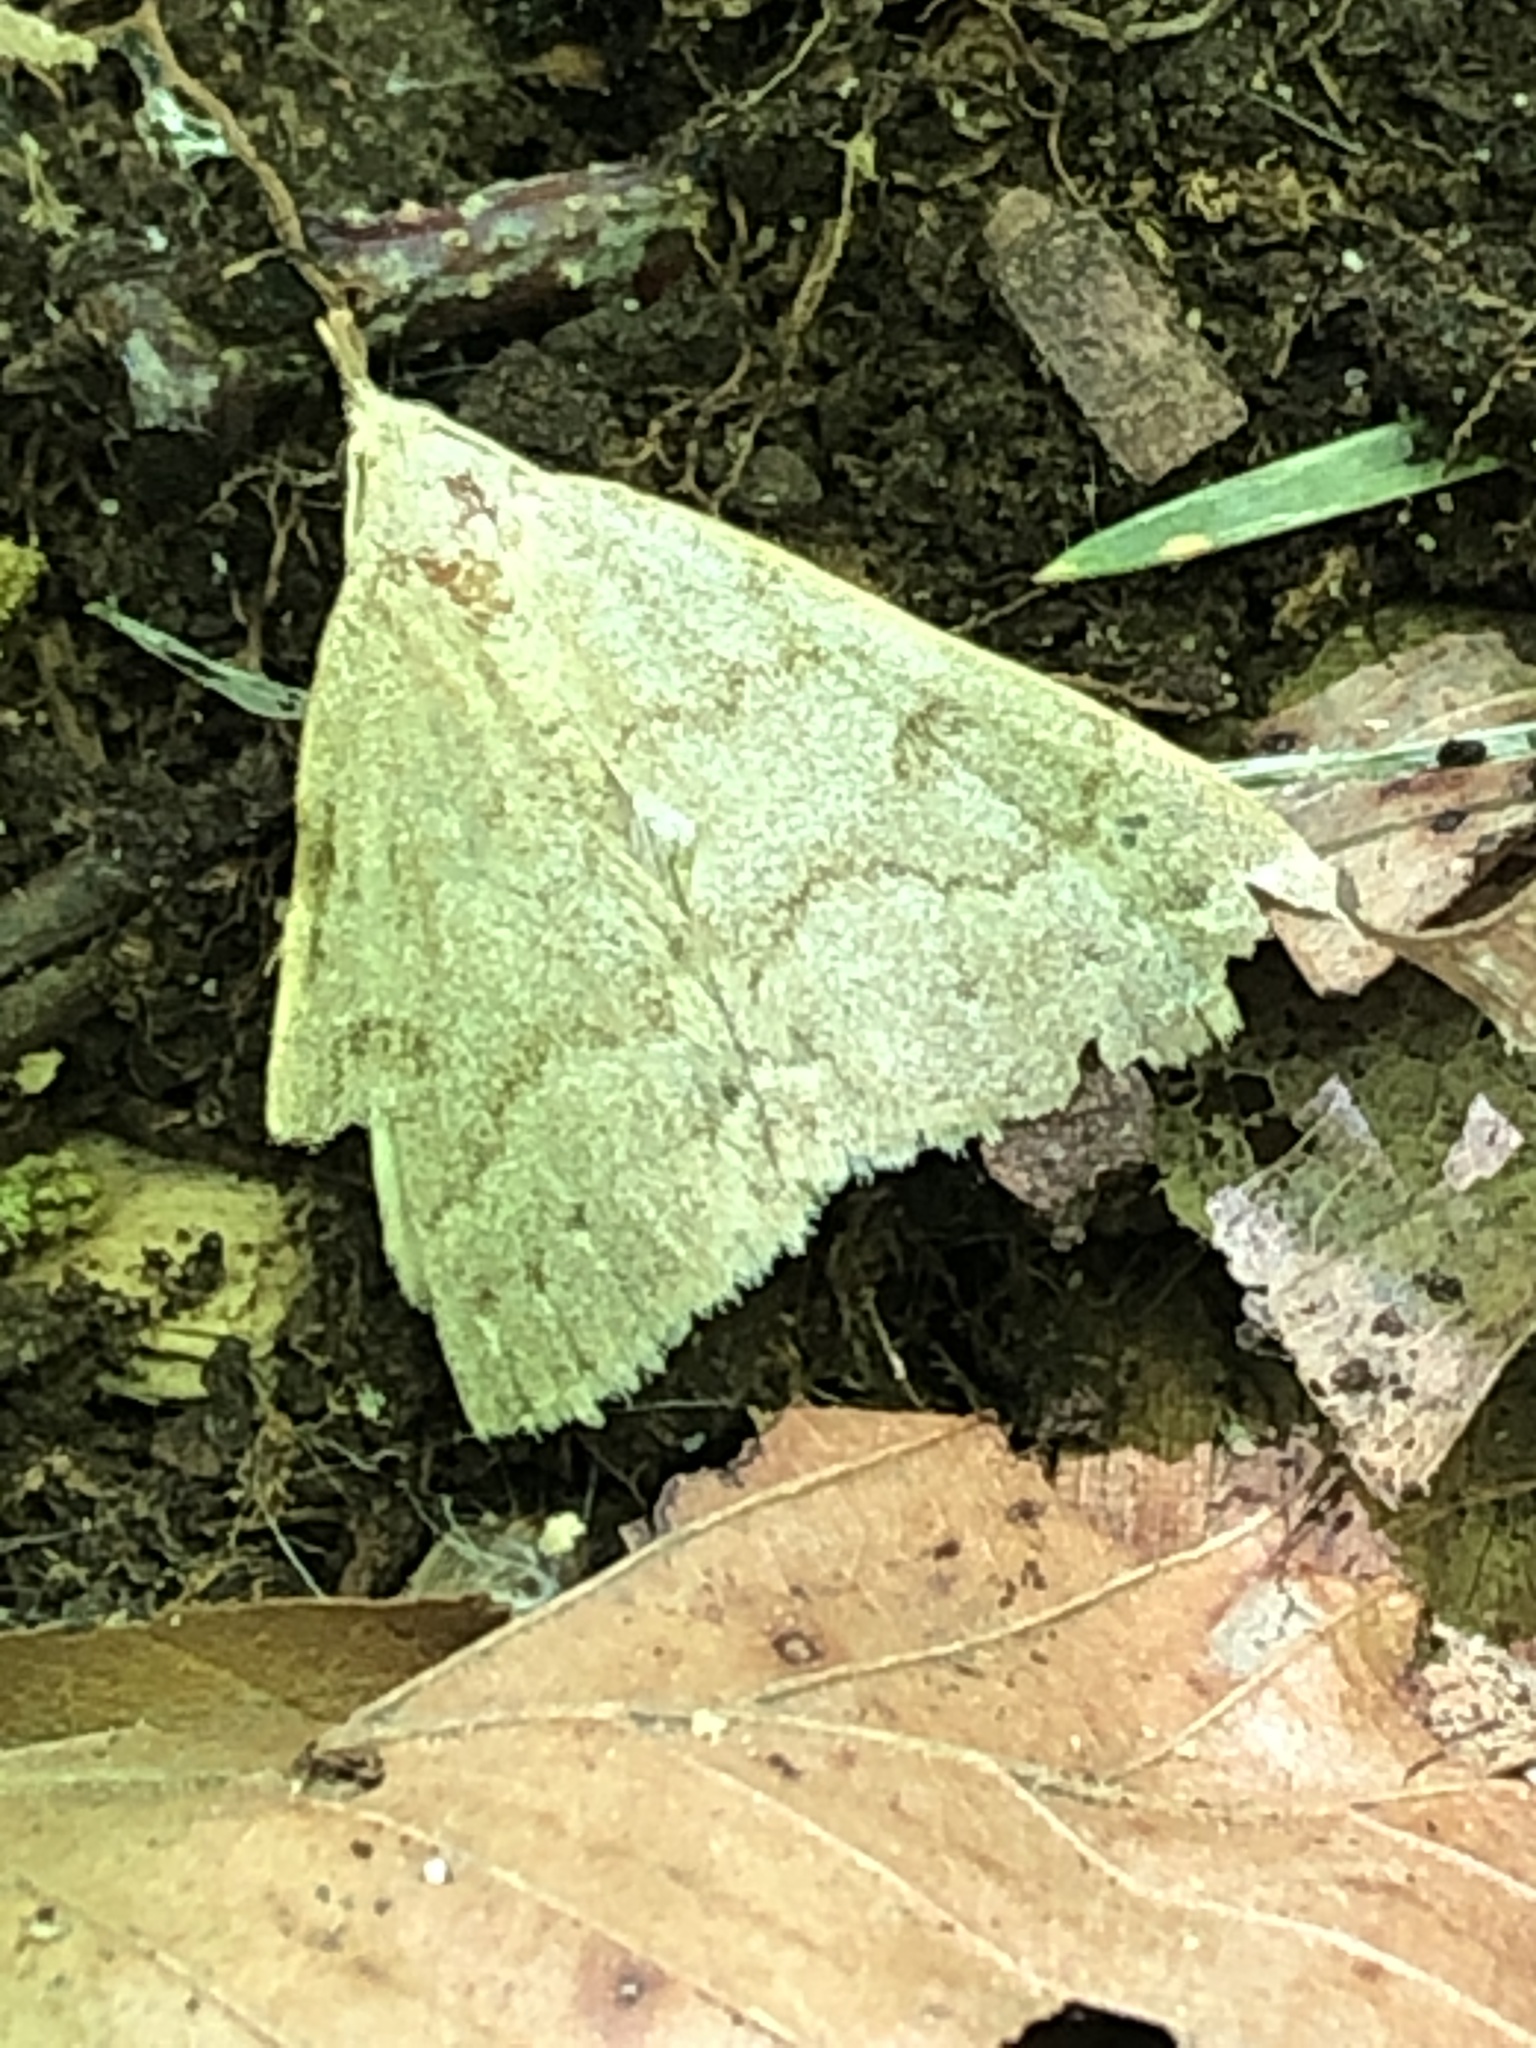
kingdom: Animalia
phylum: Arthropoda
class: Insecta
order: Lepidoptera
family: Erebidae
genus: Macrochilo
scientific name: Macrochilo morbidalis
